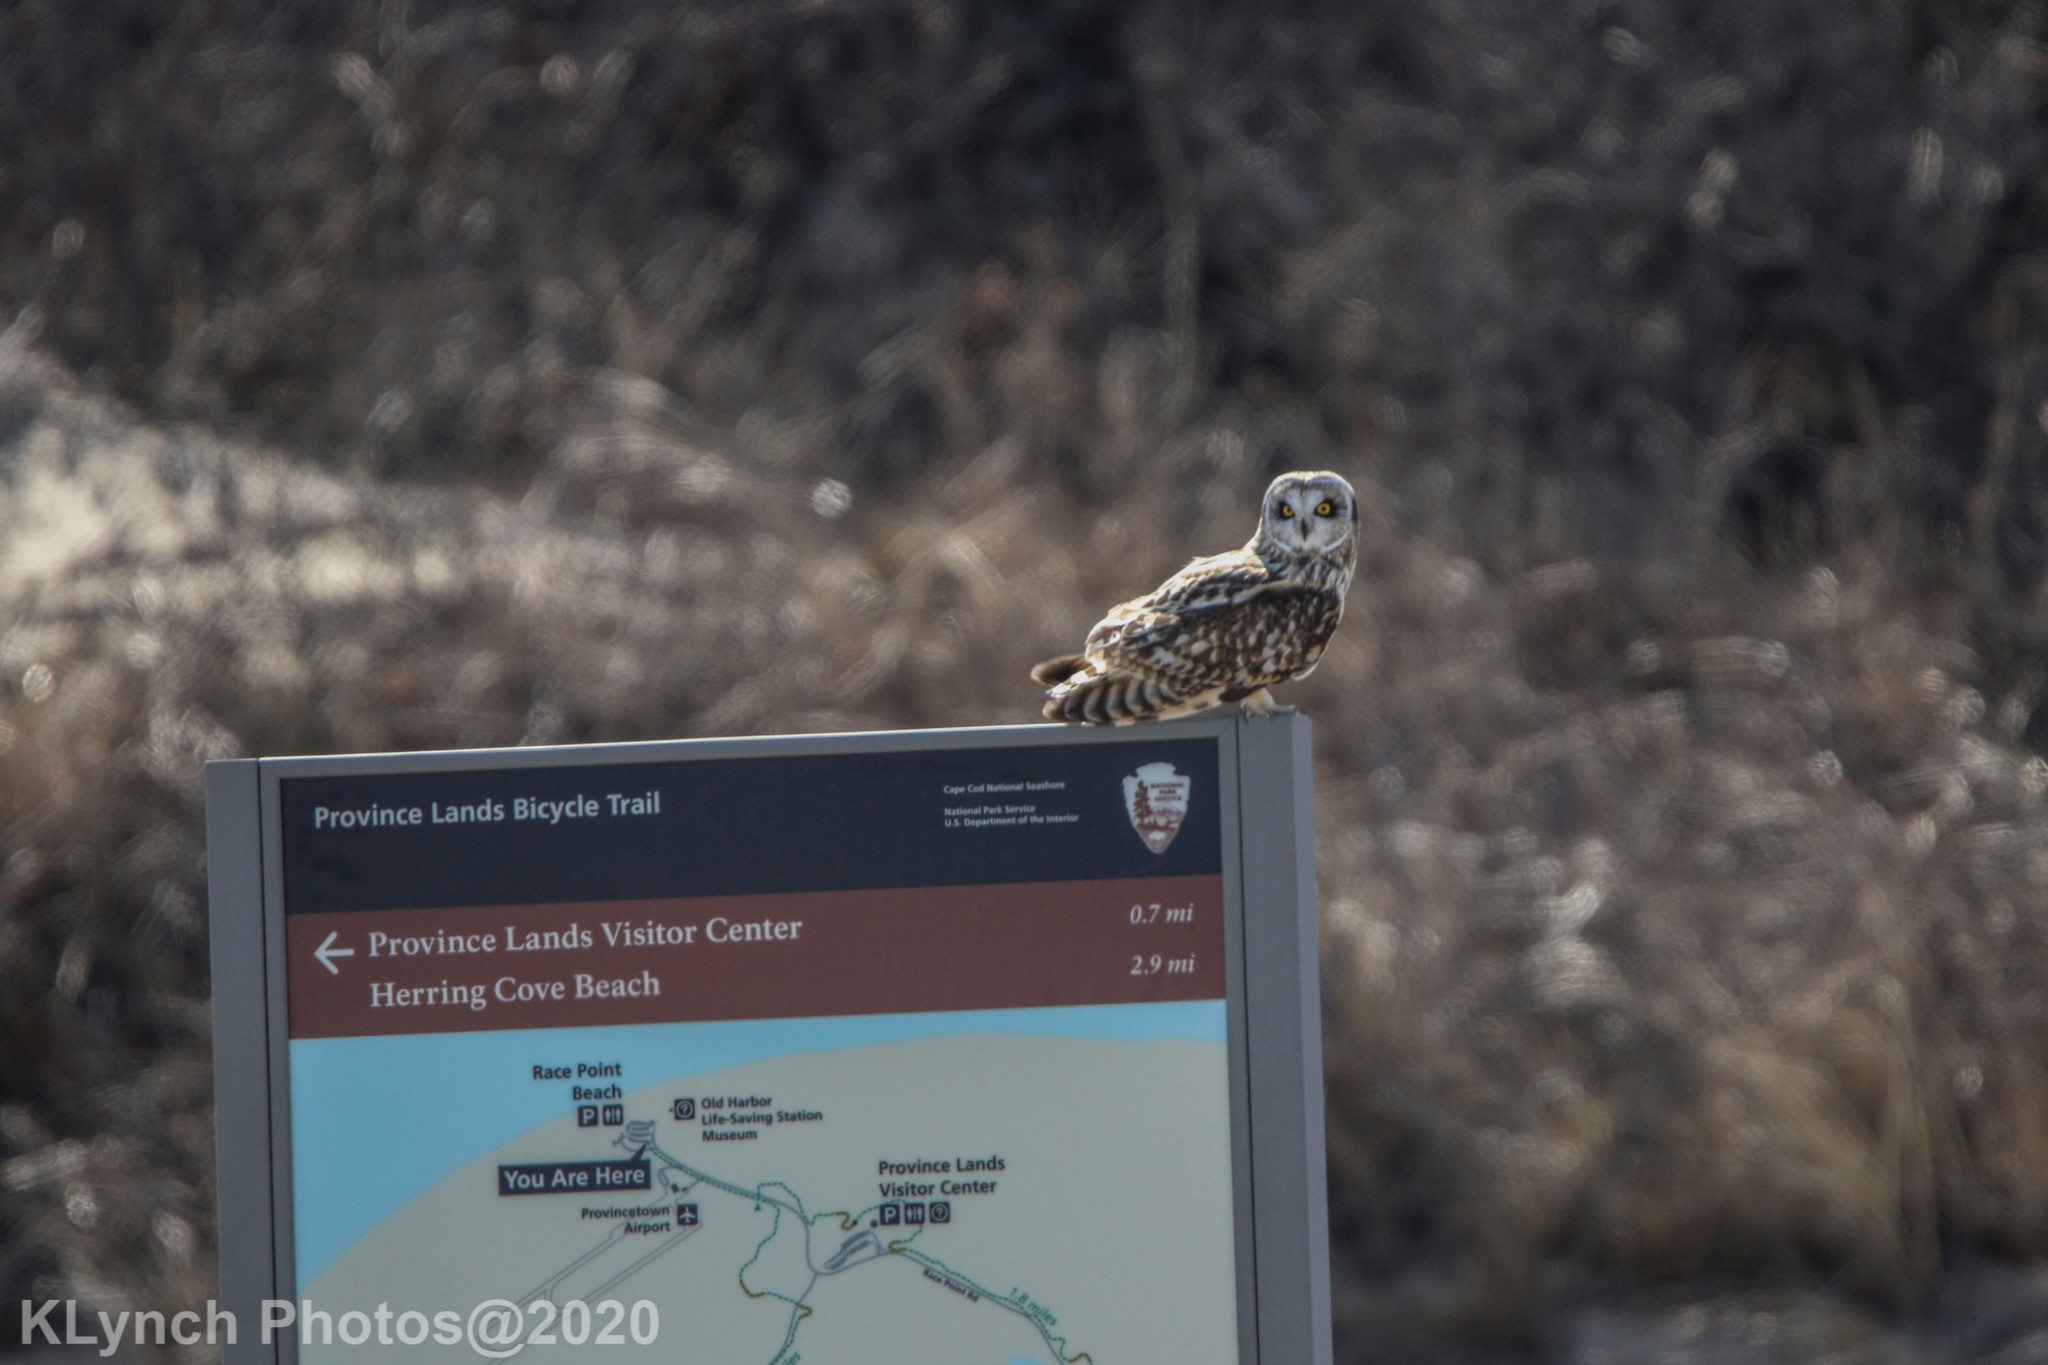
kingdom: Animalia
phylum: Chordata
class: Aves
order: Strigiformes
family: Strigidae
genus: Asio
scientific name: Asio flammeus
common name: Short-eared owl
